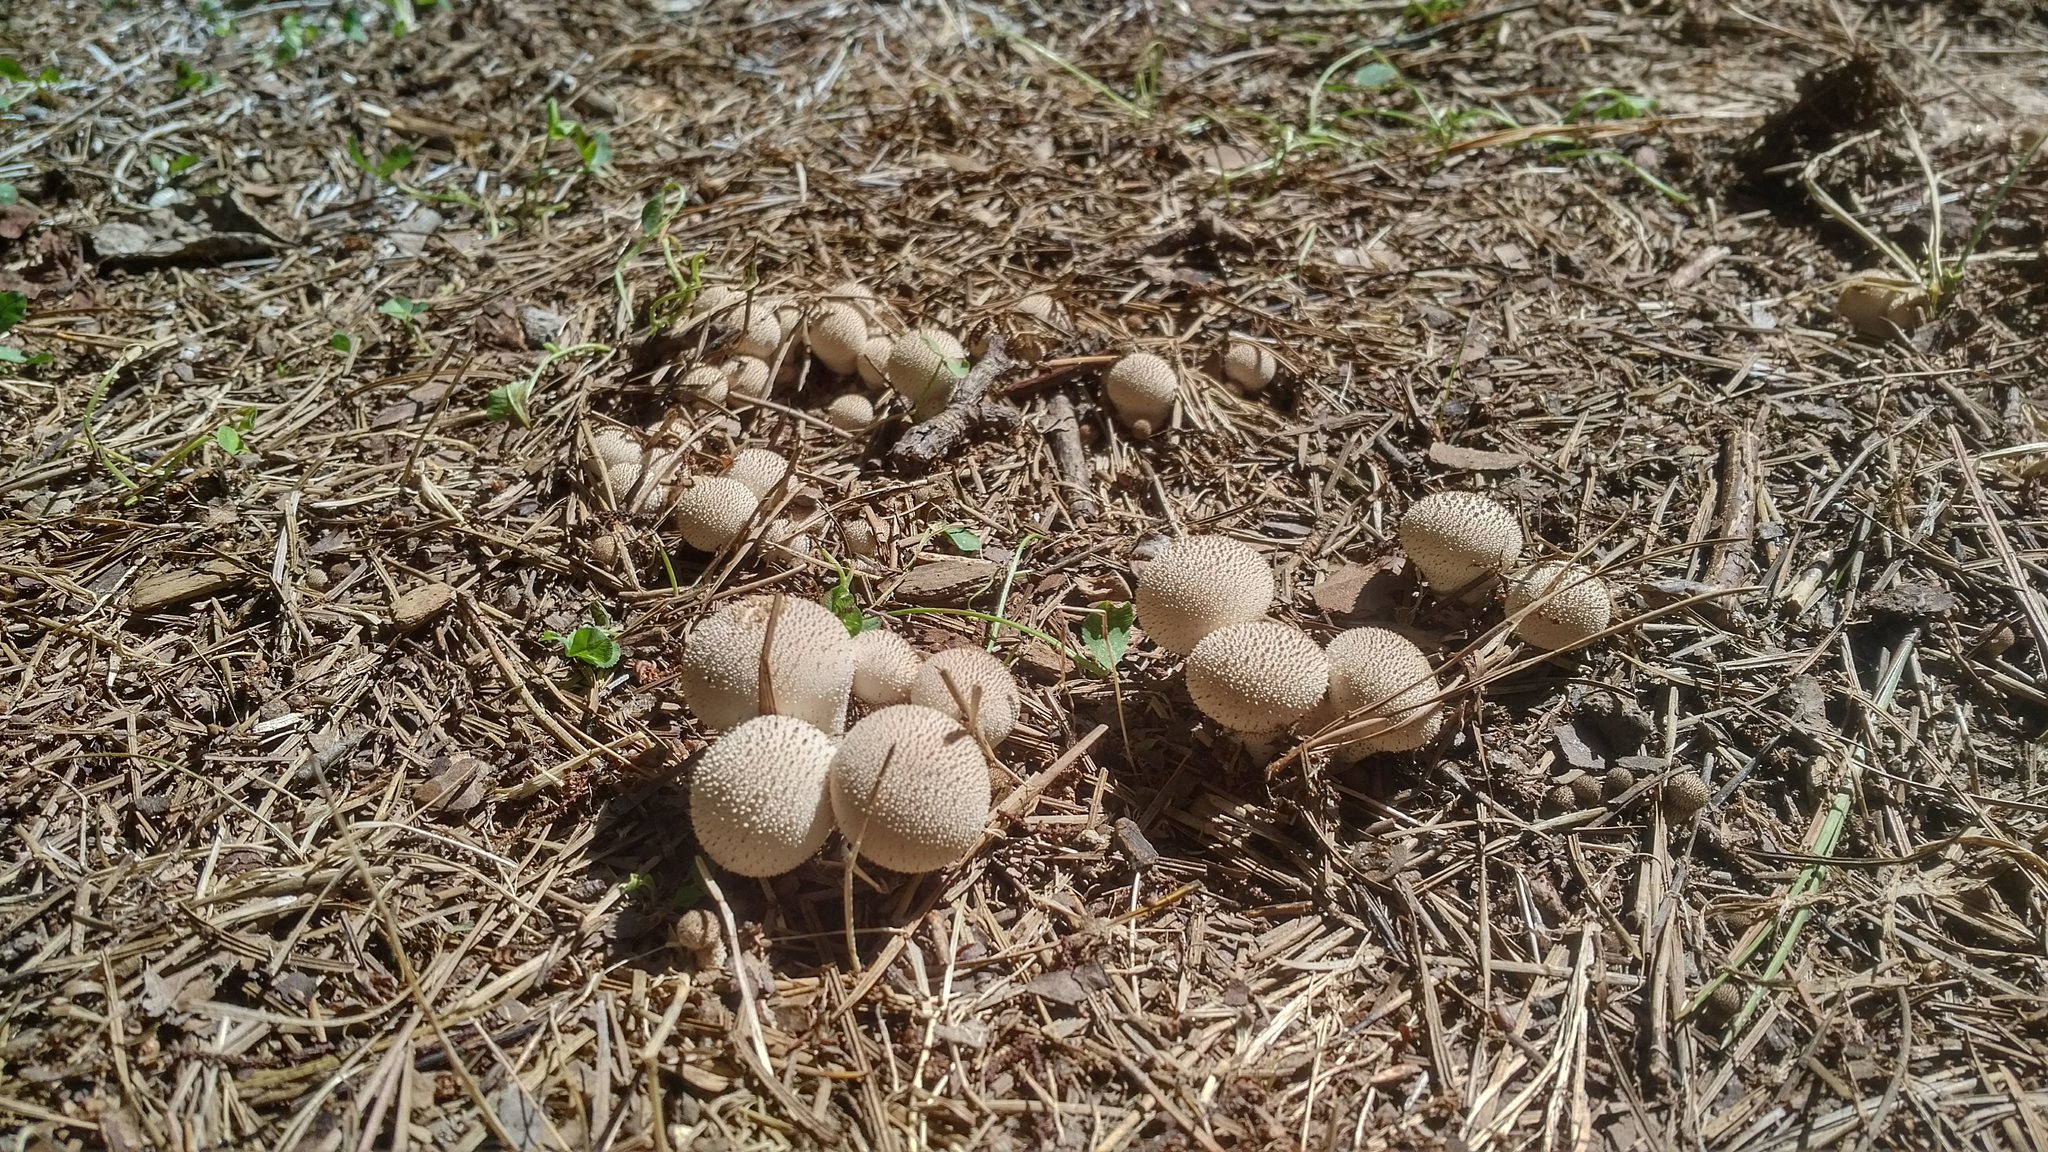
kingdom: Fungi
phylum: Basidiomycota
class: Agaricomycetes
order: Agaricales
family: Lycoperdaceae
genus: Lycoperdon
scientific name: Lycoperdon perlatum
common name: Common puffball
